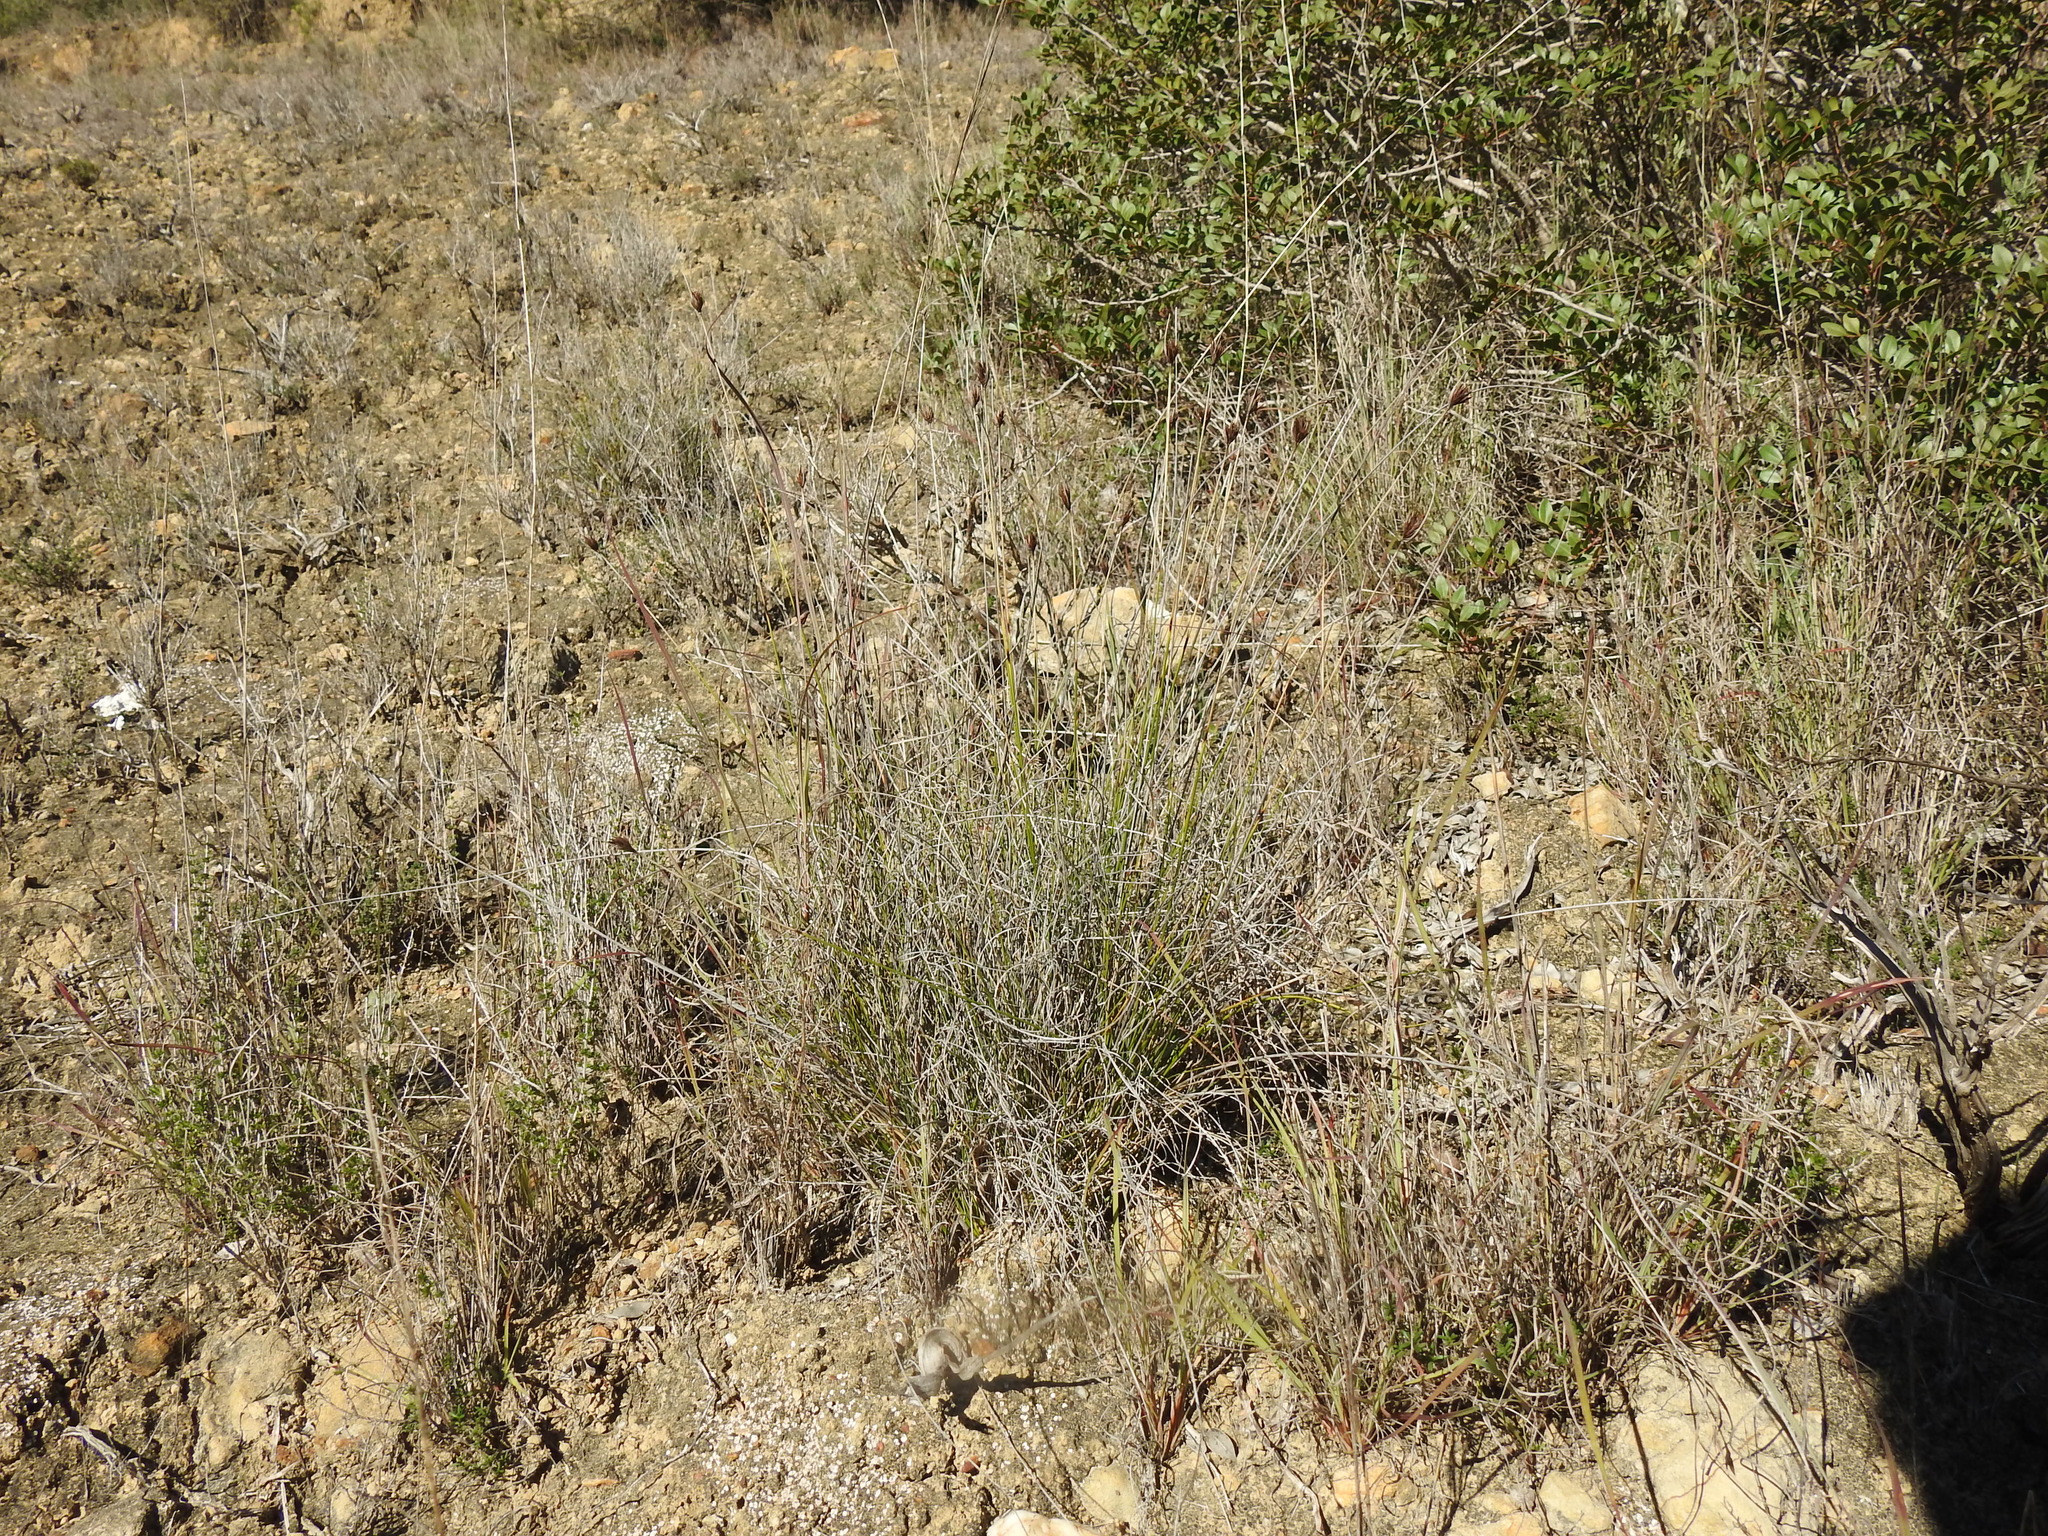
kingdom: Plantae
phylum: Tracheophyta
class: Liliopsida
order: Poales
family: Cyperaceae
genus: Schoenus
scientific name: Schoenus nigricans
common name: Black bog-rush
